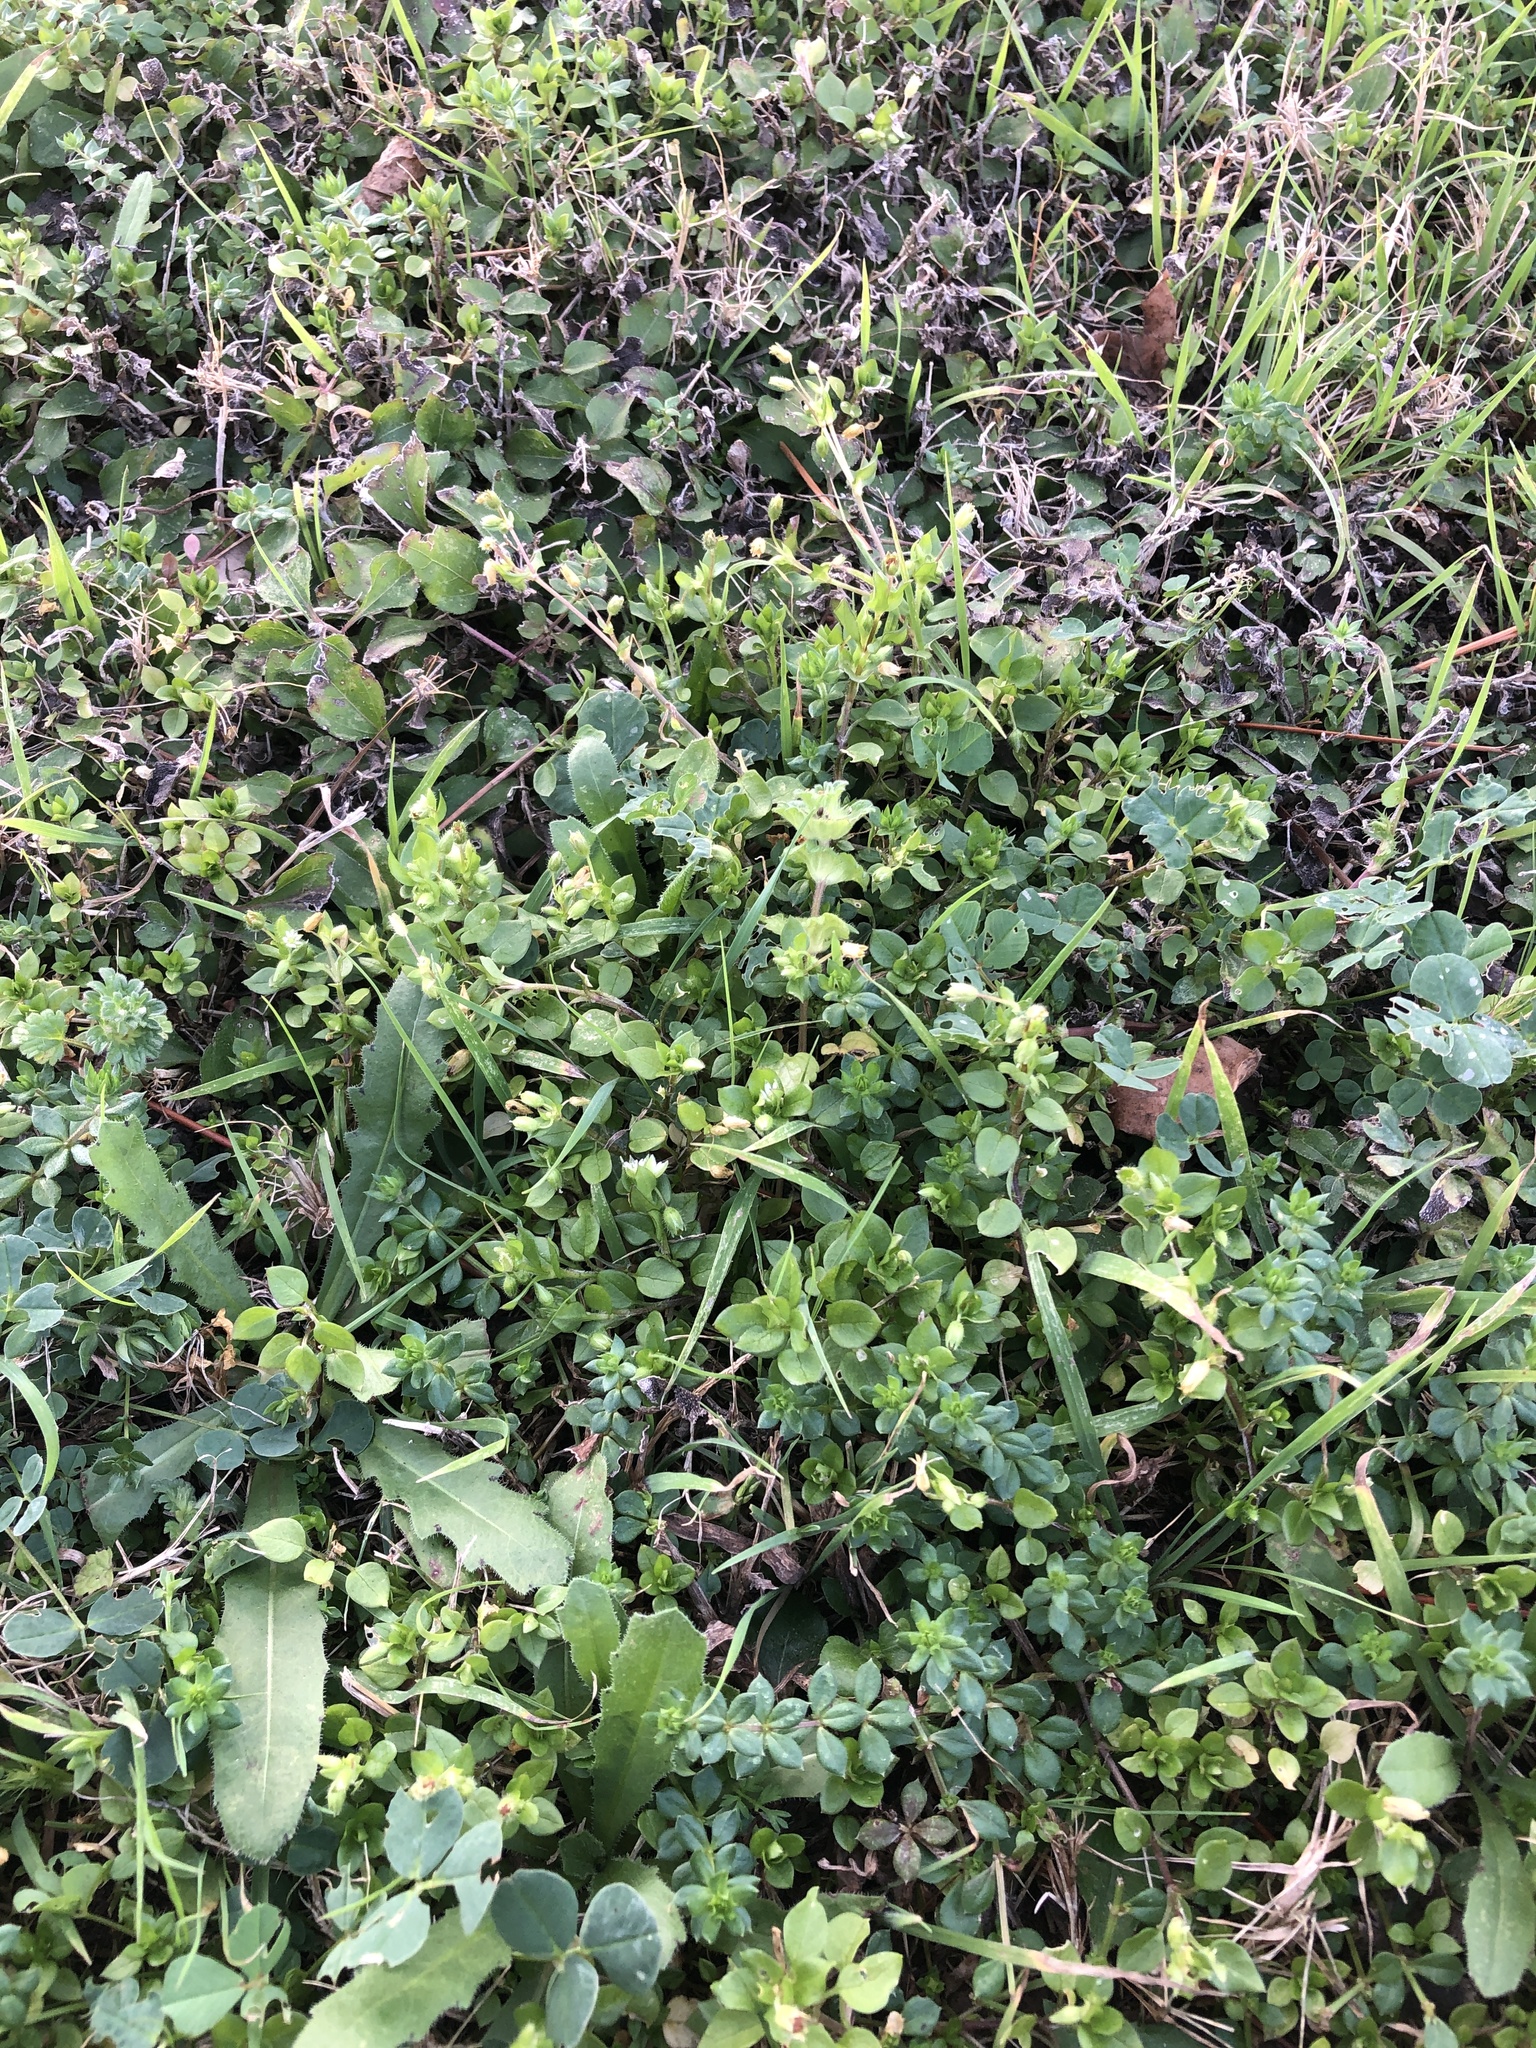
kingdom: Plantae
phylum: Tracheophyta
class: Magnoliopsida
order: Caryophyllales
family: Caryophyllaceae
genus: Stellaria
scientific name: Stellaria media
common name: Common chickweed
